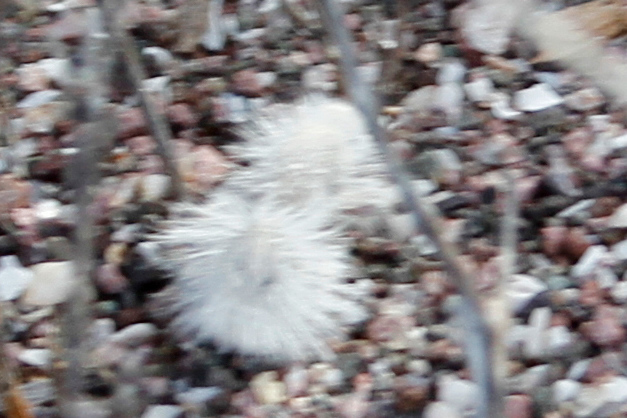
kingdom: Animalia
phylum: Arthropoda
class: Insecta
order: Hymenoptera
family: Mutillidae
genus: Dasymutilla
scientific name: Dasymutilla gloriosa
